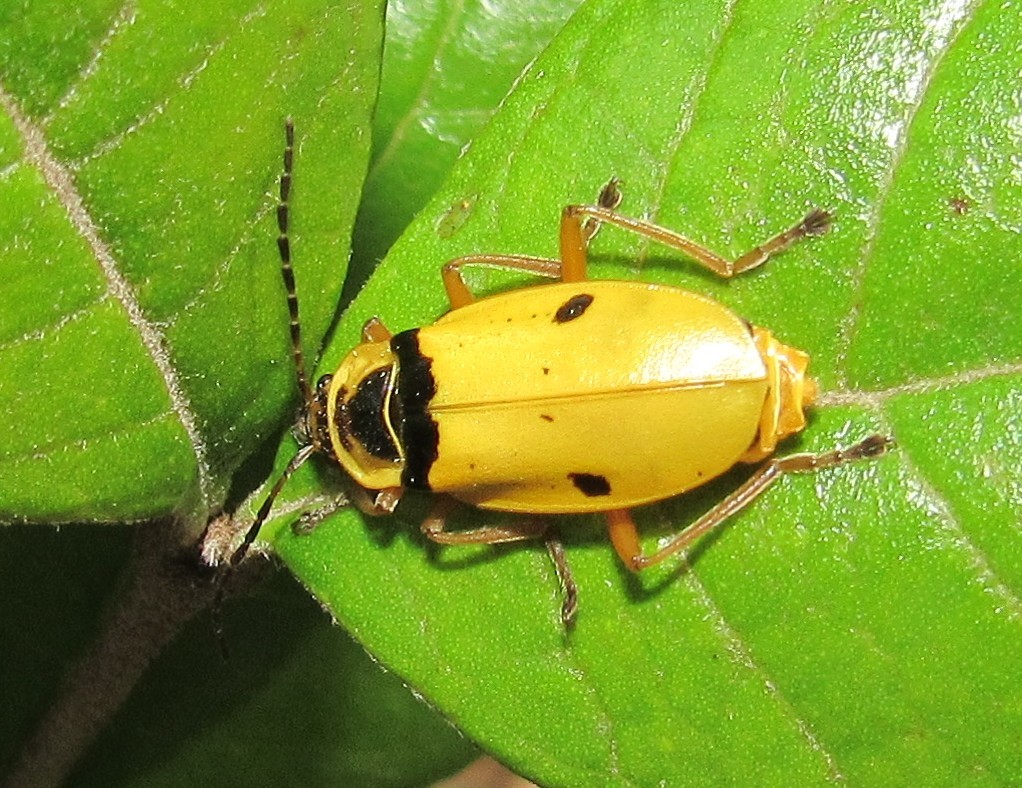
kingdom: Animalia
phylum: Arthropoda
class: Insecta
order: Coleoptera
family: Cantharidae
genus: Chauliognathus
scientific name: Chauliognathus
